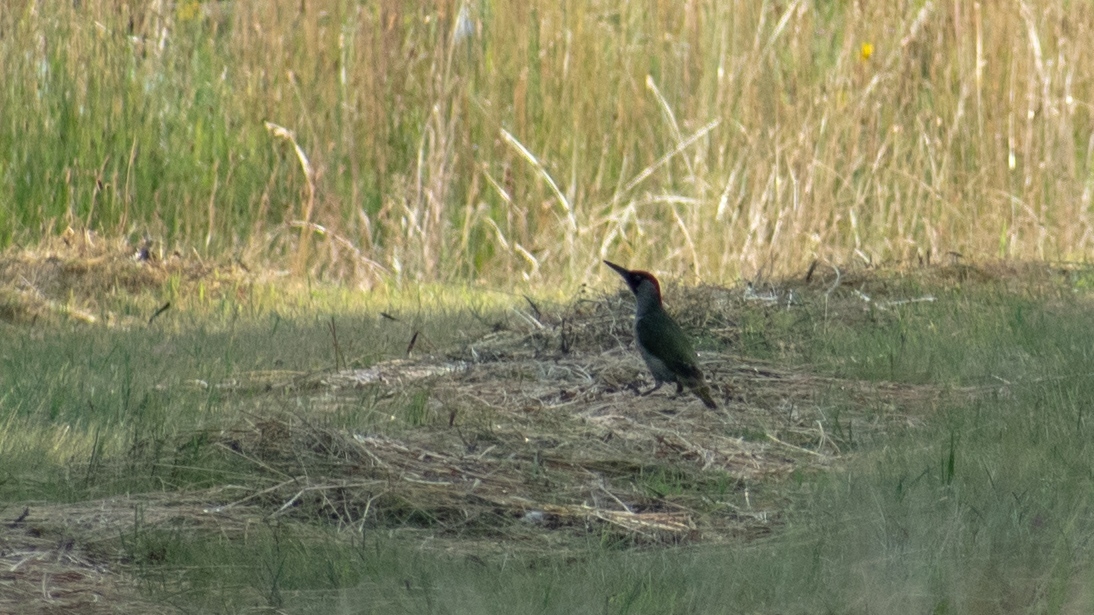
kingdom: Animalia
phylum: Chordata
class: Aves
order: Piciformes
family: Picidae
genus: Picus
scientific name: Picus viridis
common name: European green woodpecker
